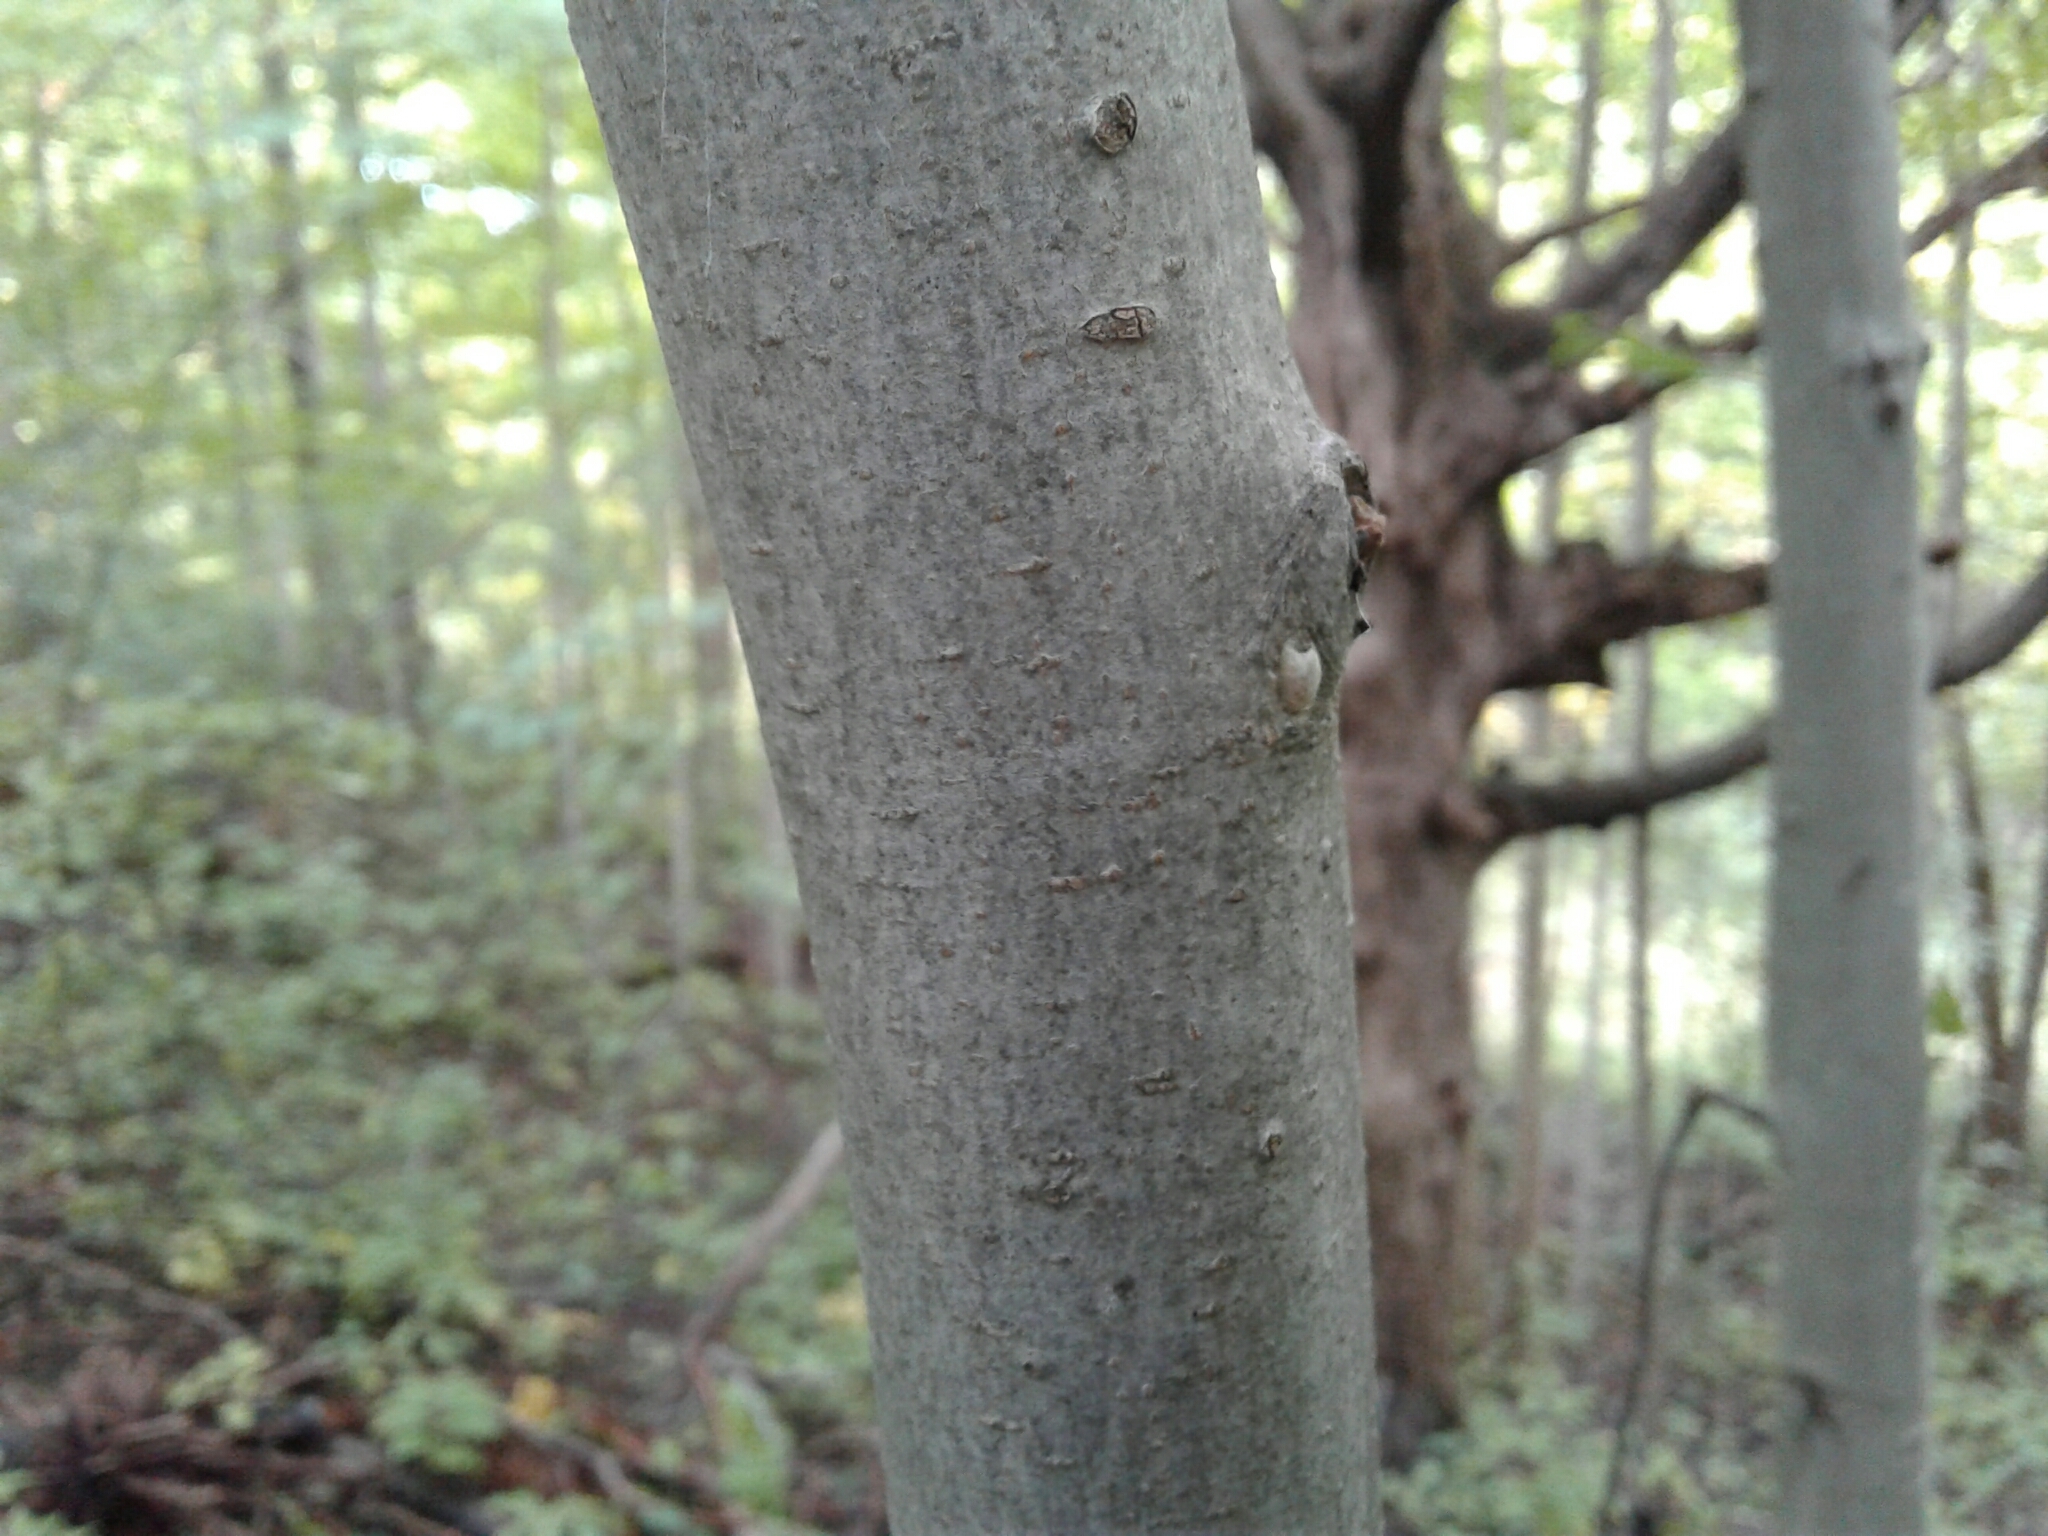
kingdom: Plantae
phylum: Tracheophyta
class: Magnoliopsida
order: Fagales
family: Fagaceae
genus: Fagus
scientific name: Fagus grandifolia
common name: American beech
